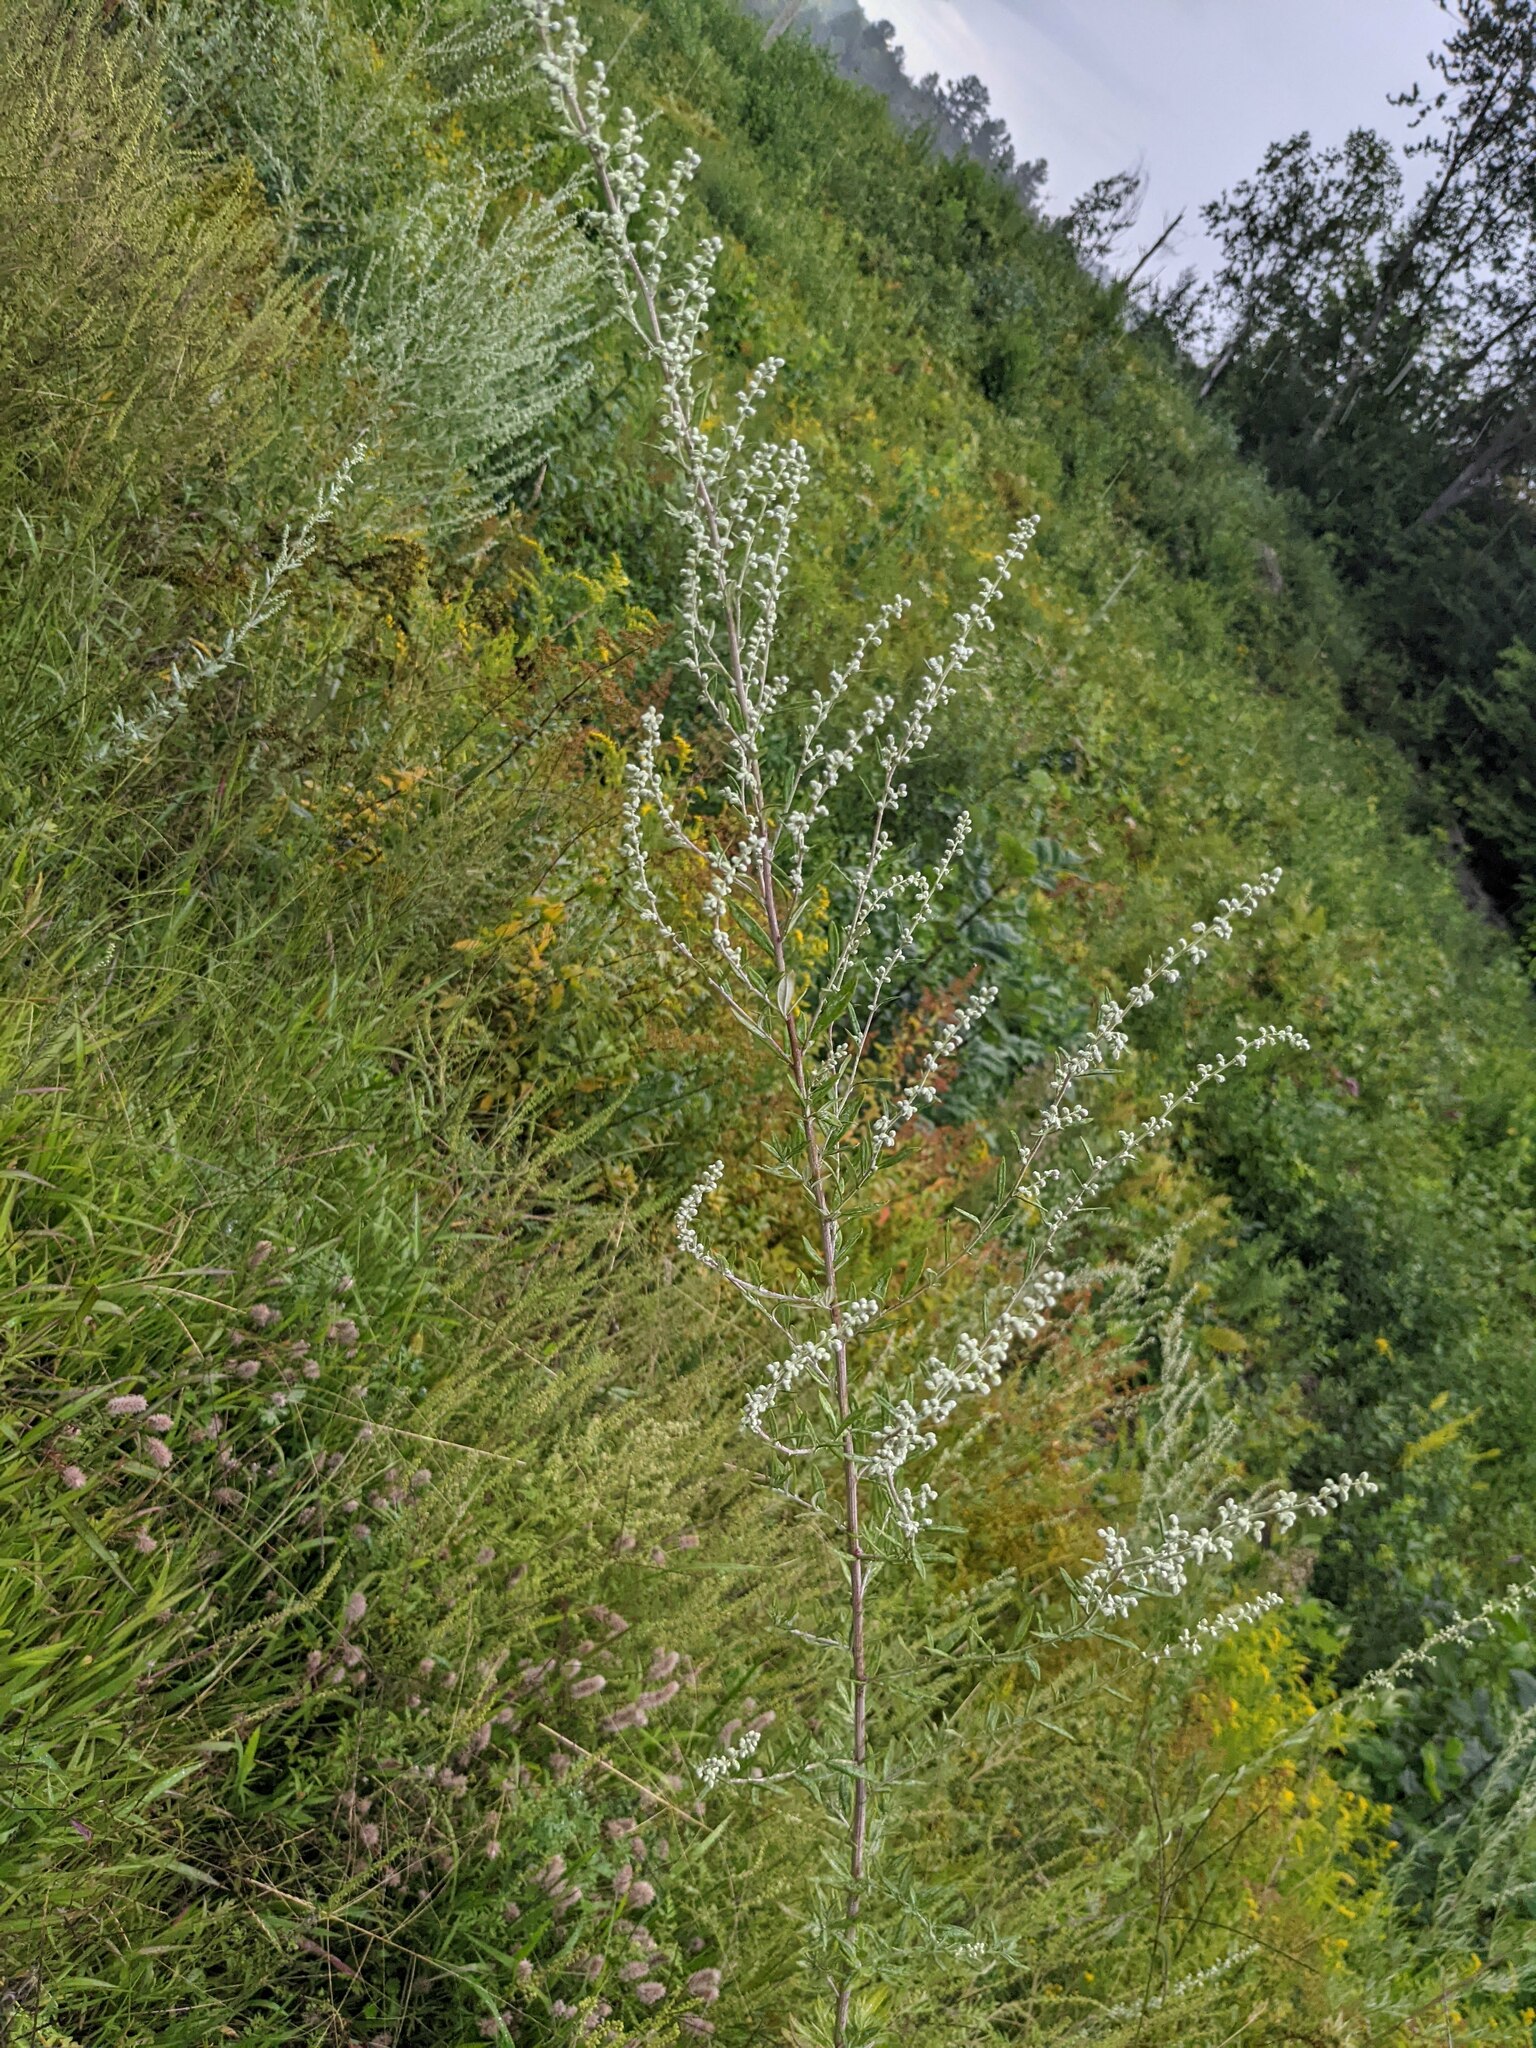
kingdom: Plantae
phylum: Tracheophyta
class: Magnoliopsida
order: Asterales
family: Asteraceae
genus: Artemisia
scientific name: Artemisia vulgaris
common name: Mugwort
